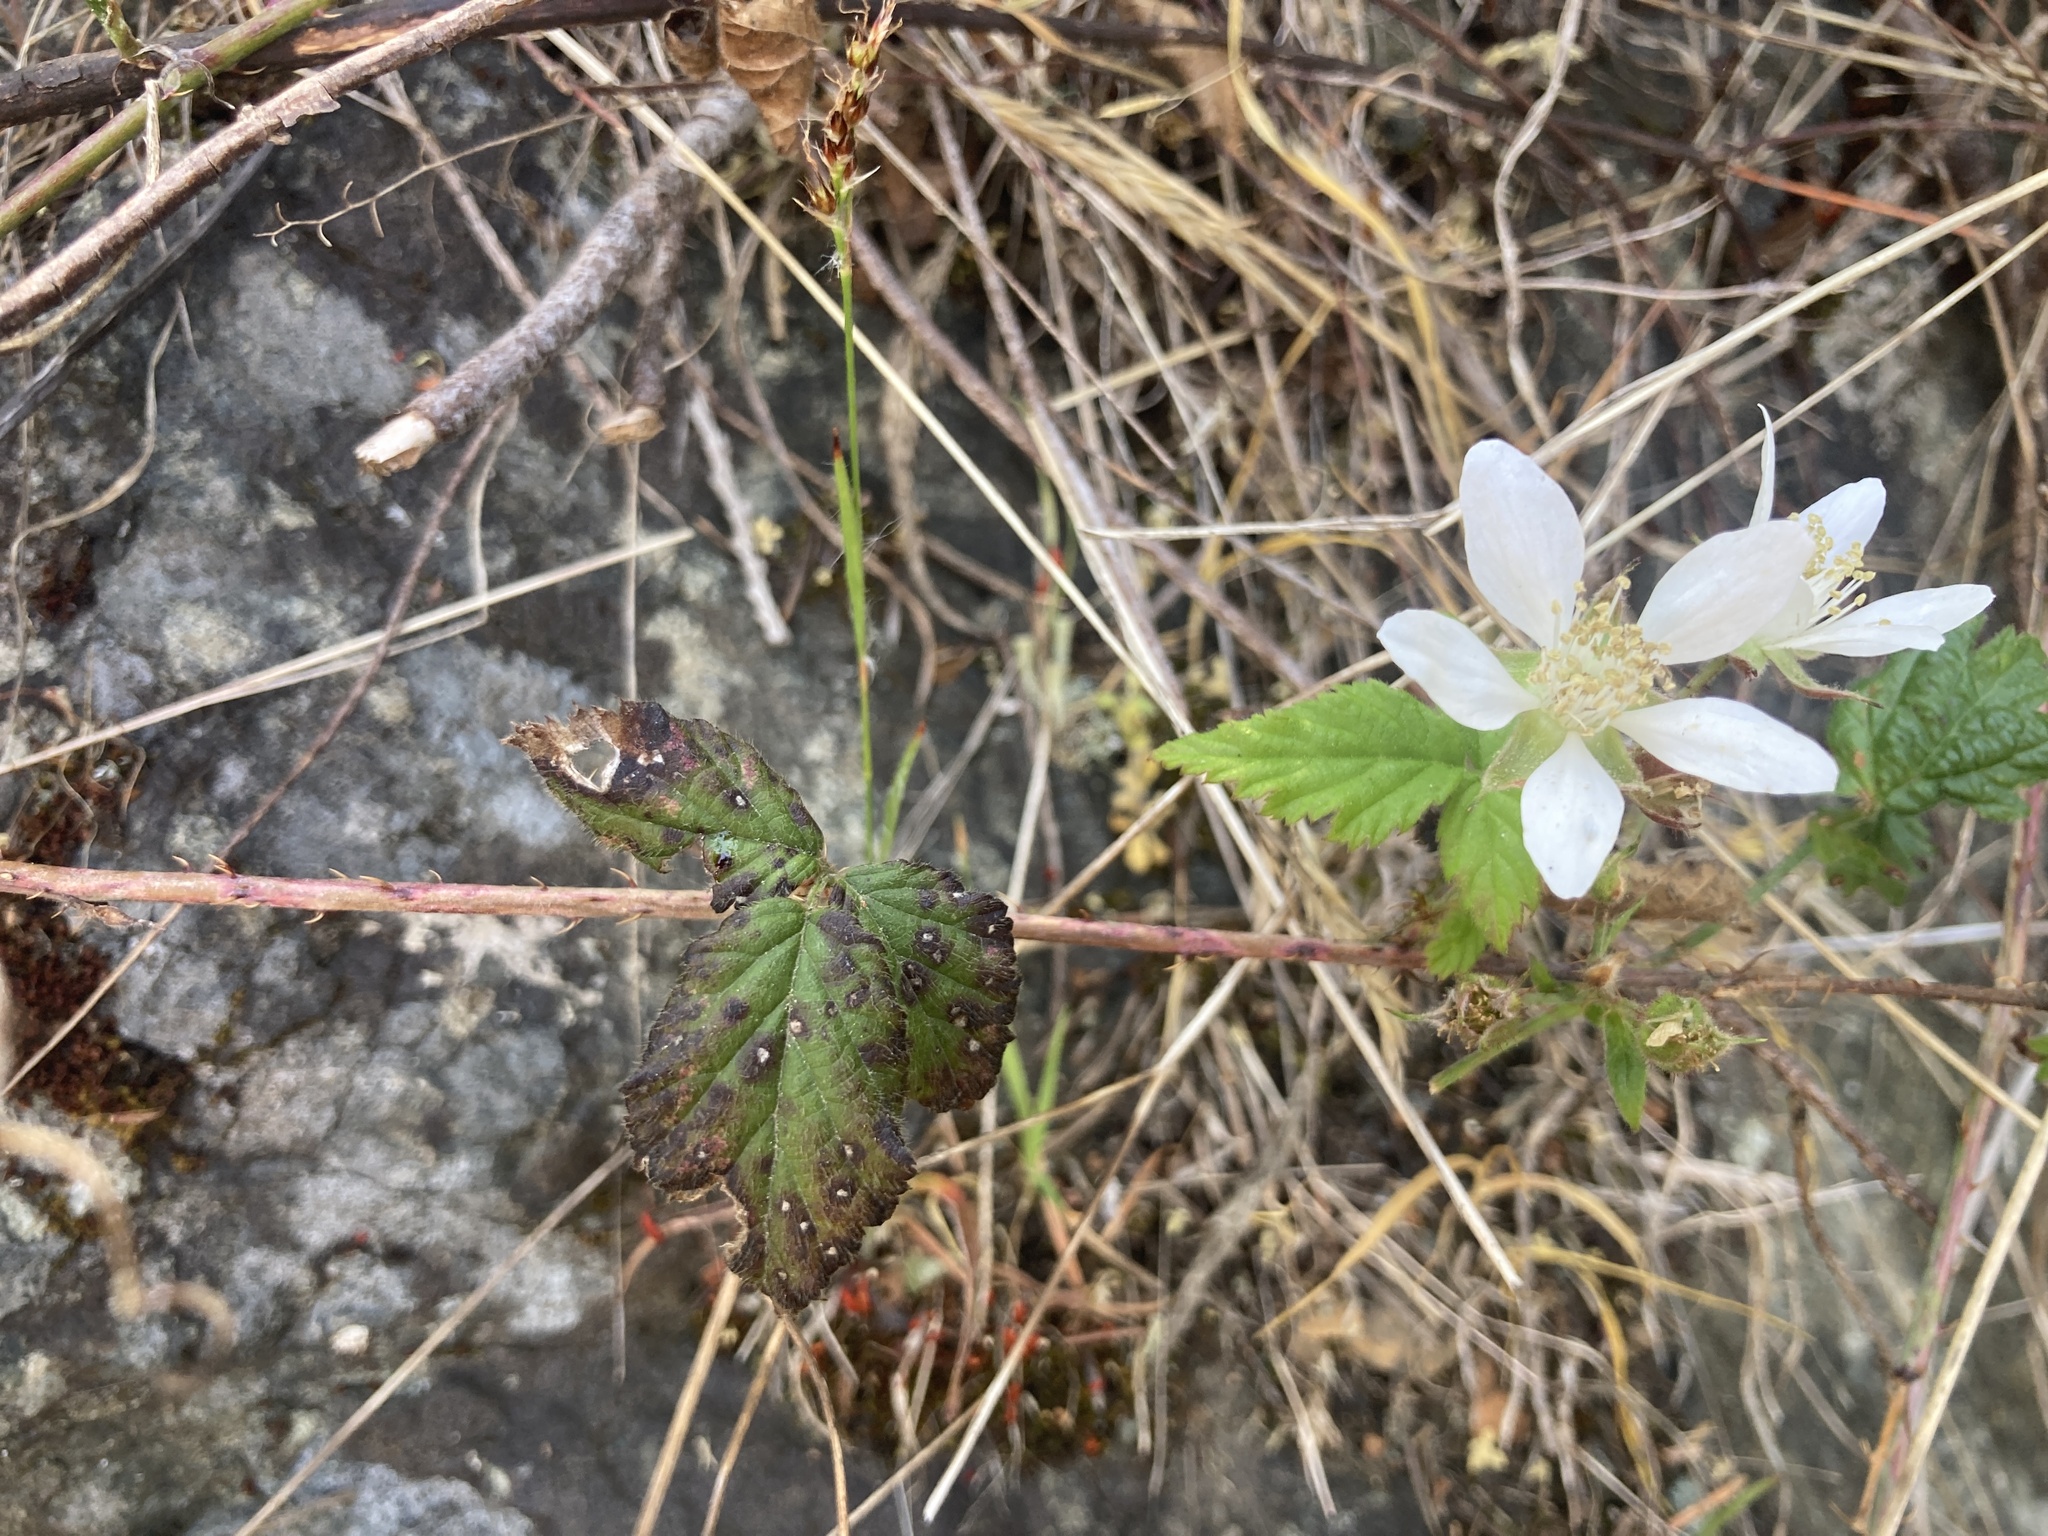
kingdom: Plantae
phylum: Tracheophyta
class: Magnoliopsida
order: Rosales
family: Rosaceae
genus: Rubus
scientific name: Rubus ursinus
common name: Pacific blackberry
